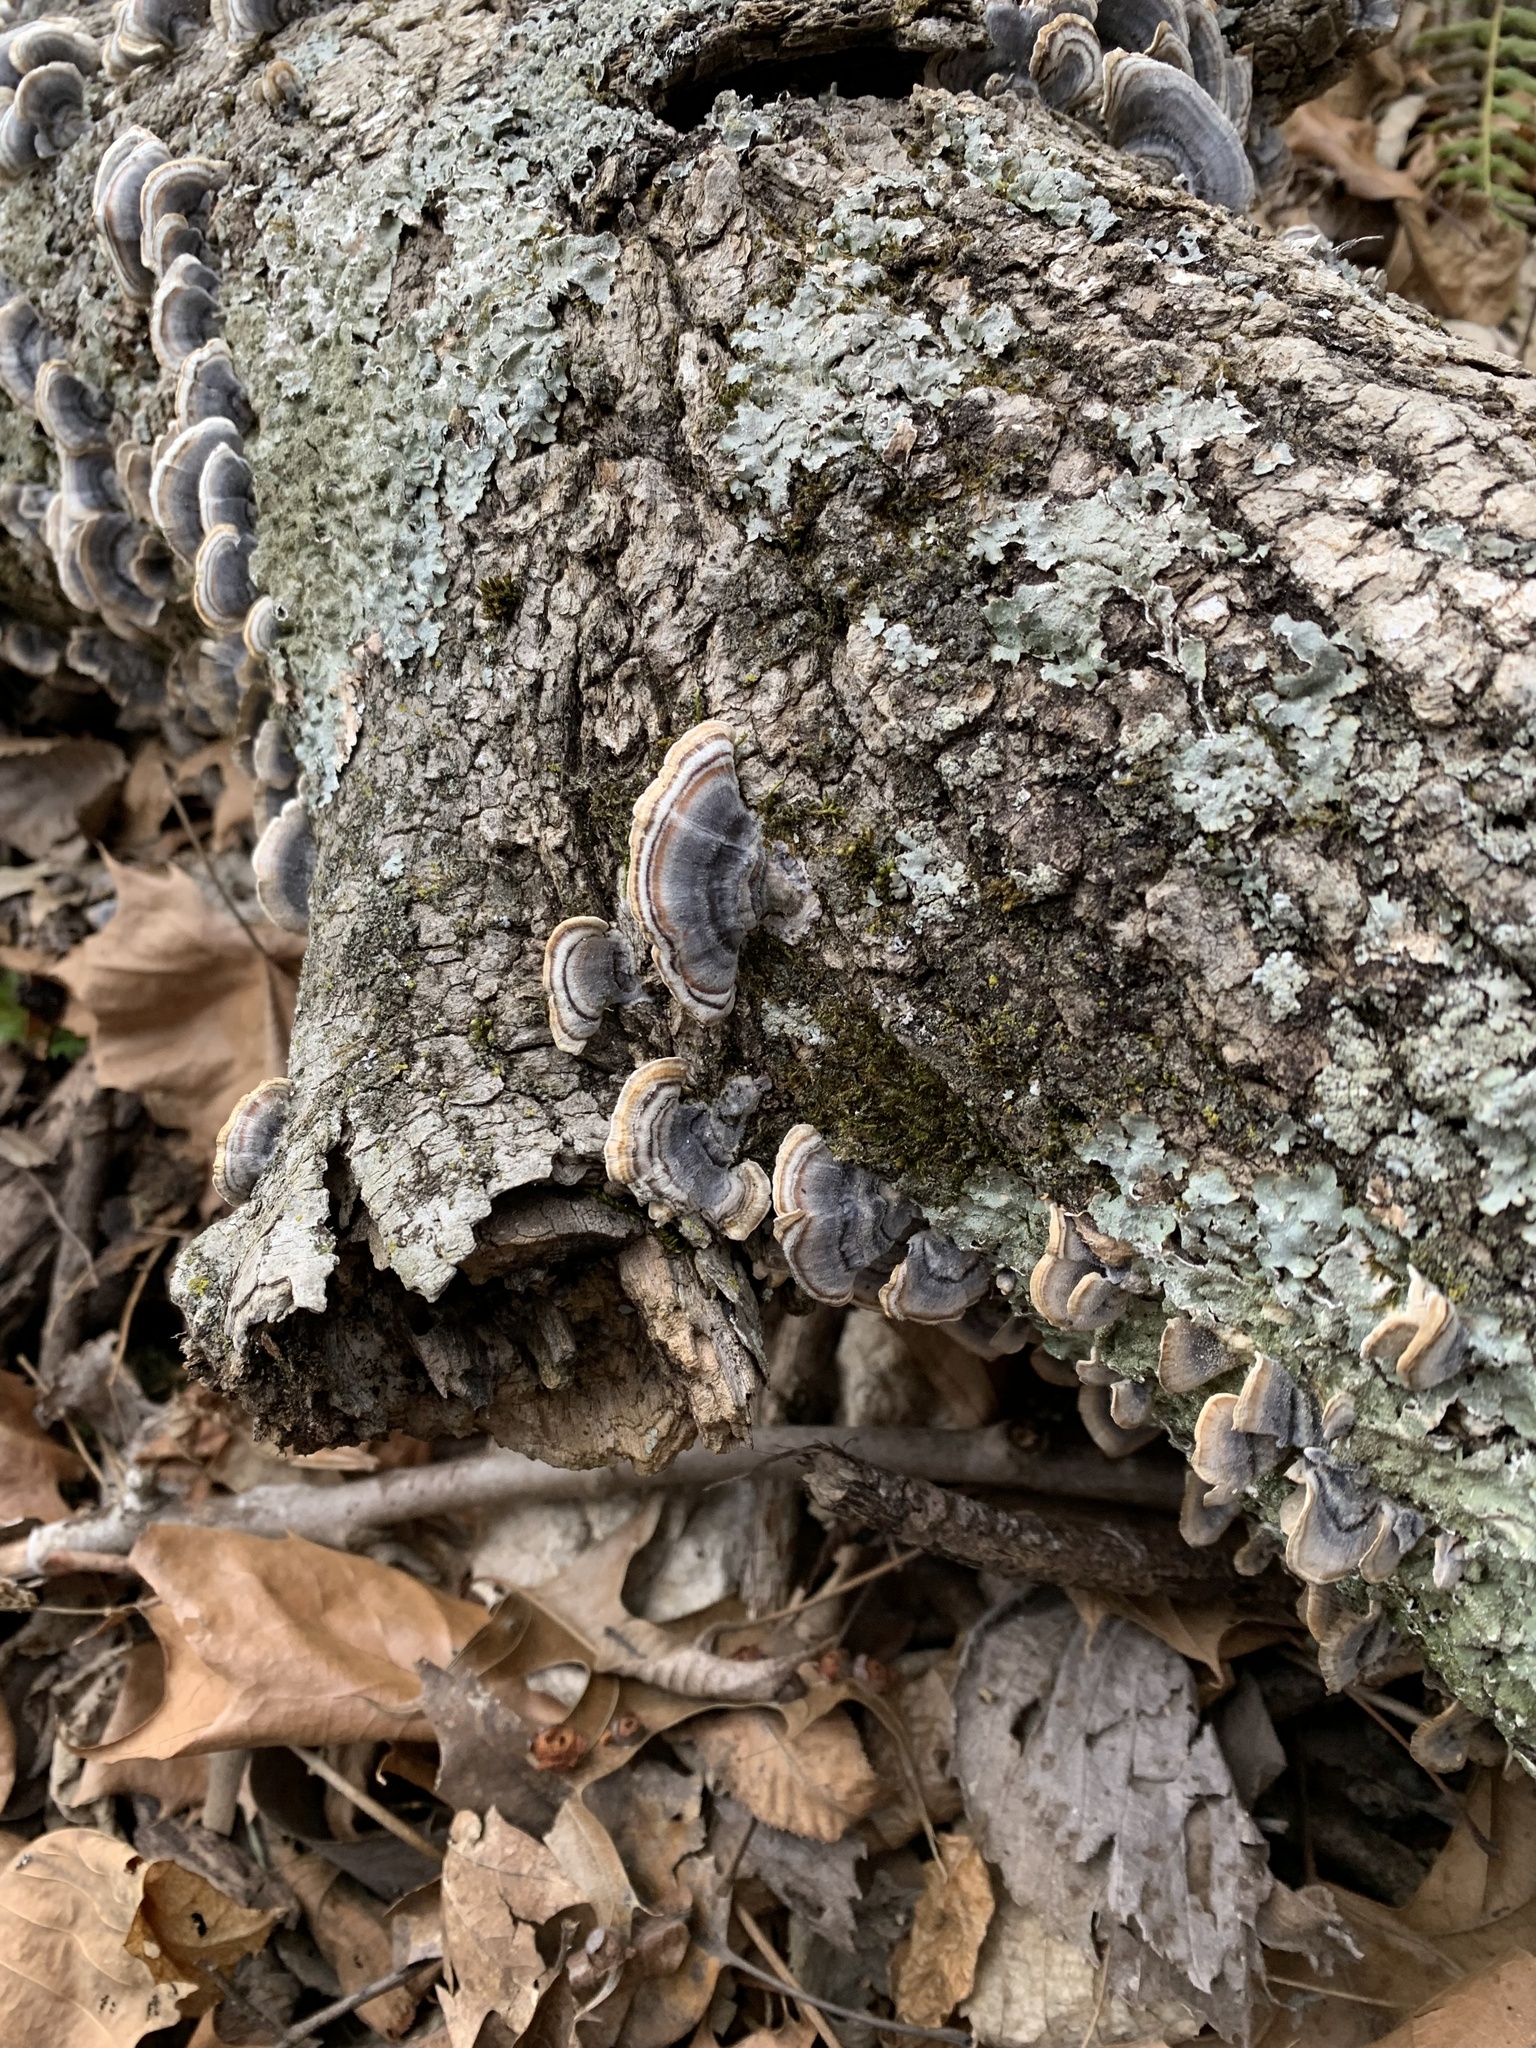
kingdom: Fungi
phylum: Basidiomycota
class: Agaricomycetes
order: Polyporales
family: Polyporaceae
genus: Trametes
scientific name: Trametes versicolor
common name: Turkeytail
